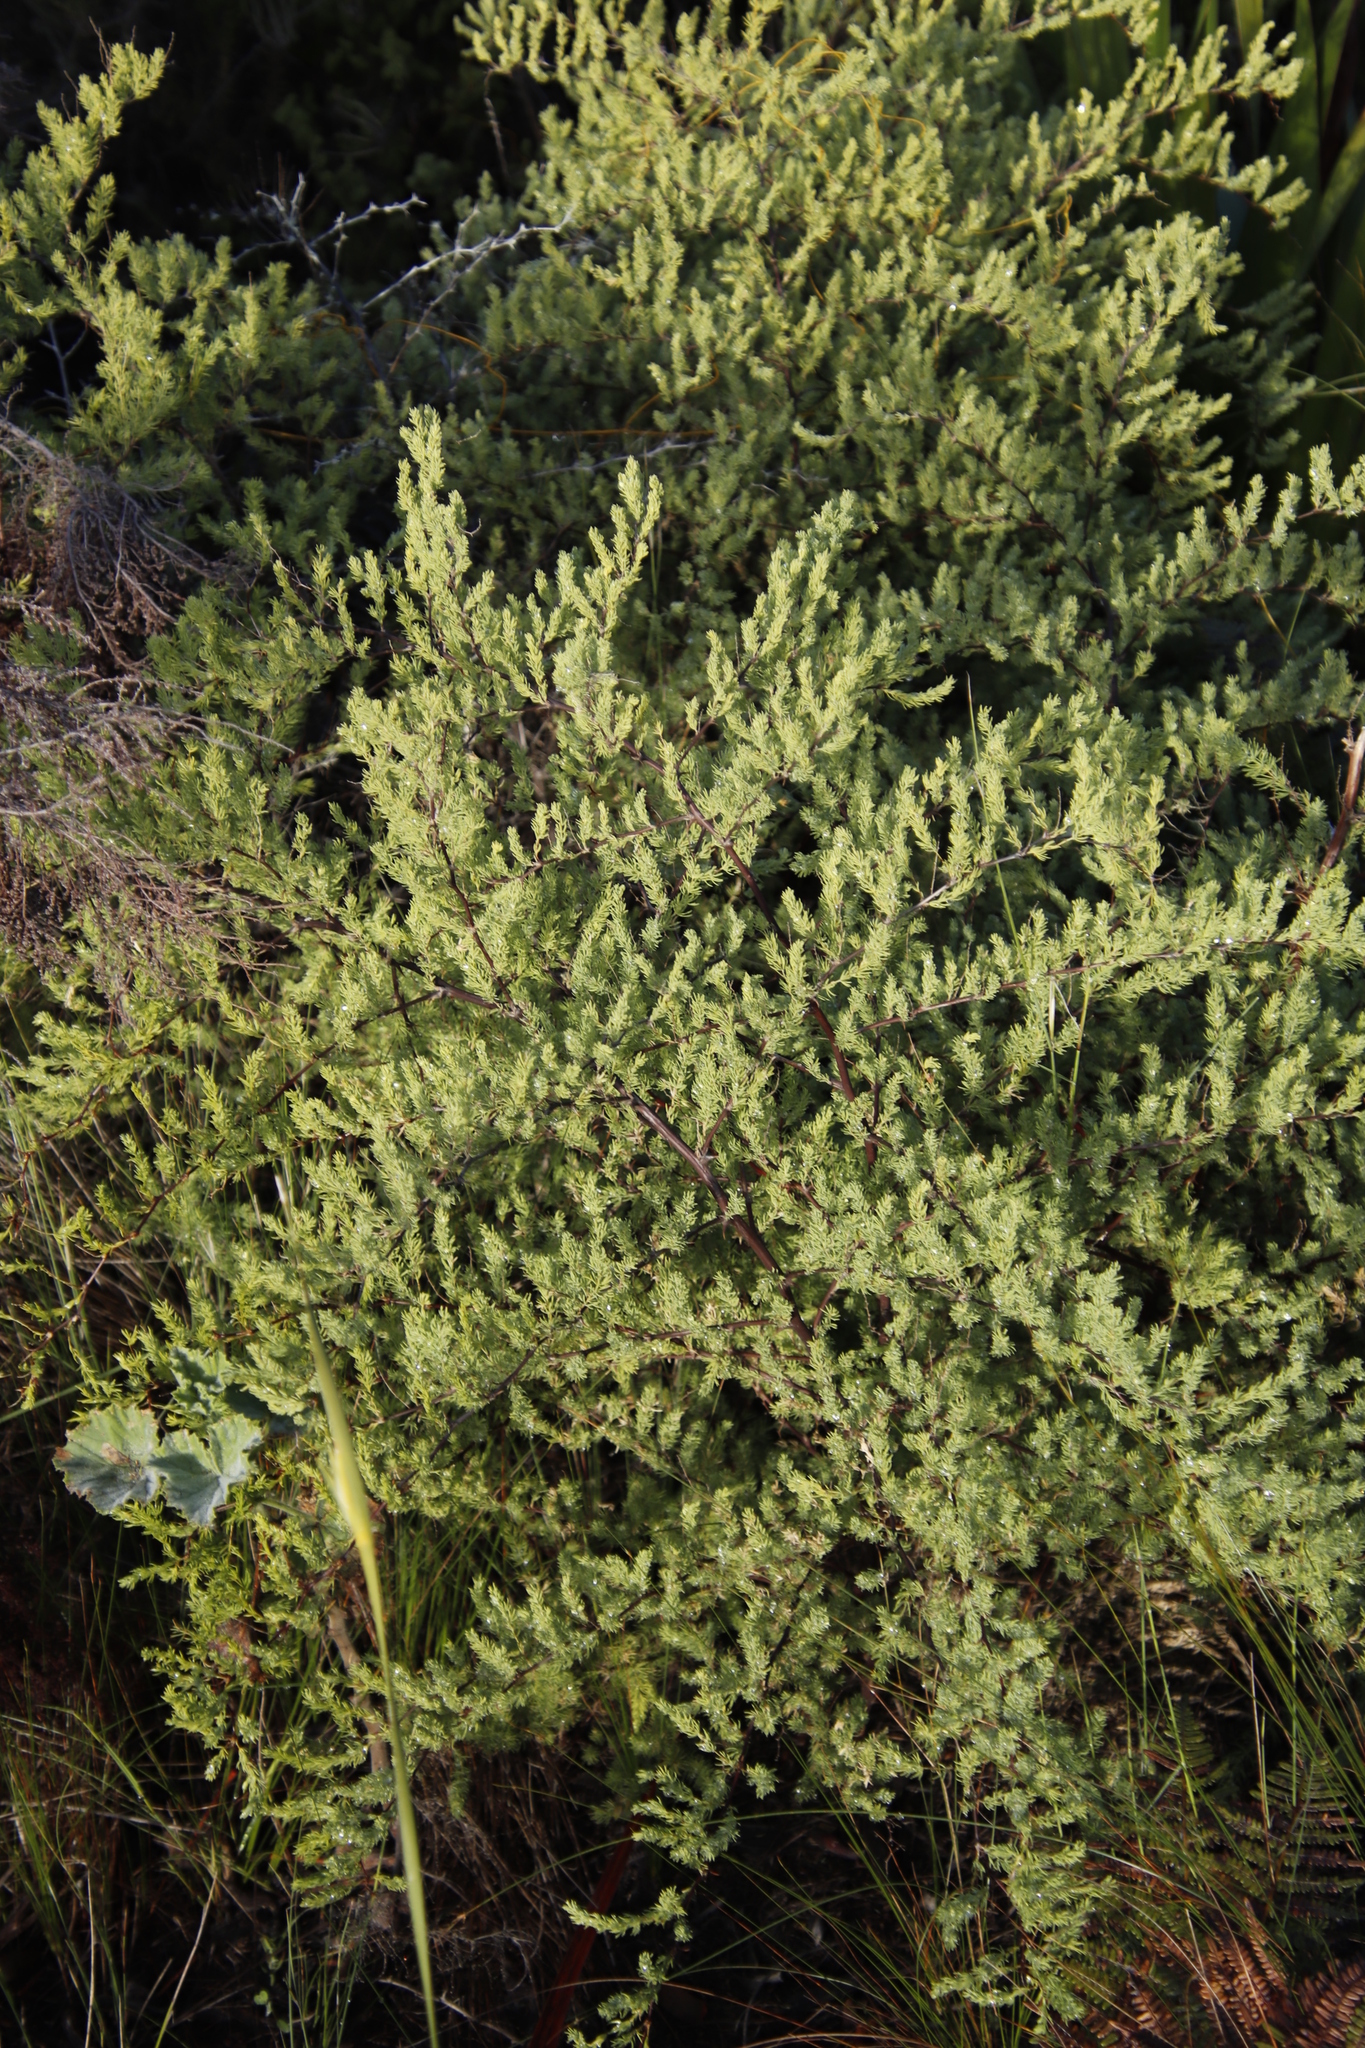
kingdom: Plantae
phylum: Tracheophyta
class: Liliopsida
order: Asparagales
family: Asparagaceae
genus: Asparagus
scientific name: Asparagus rubicundus
